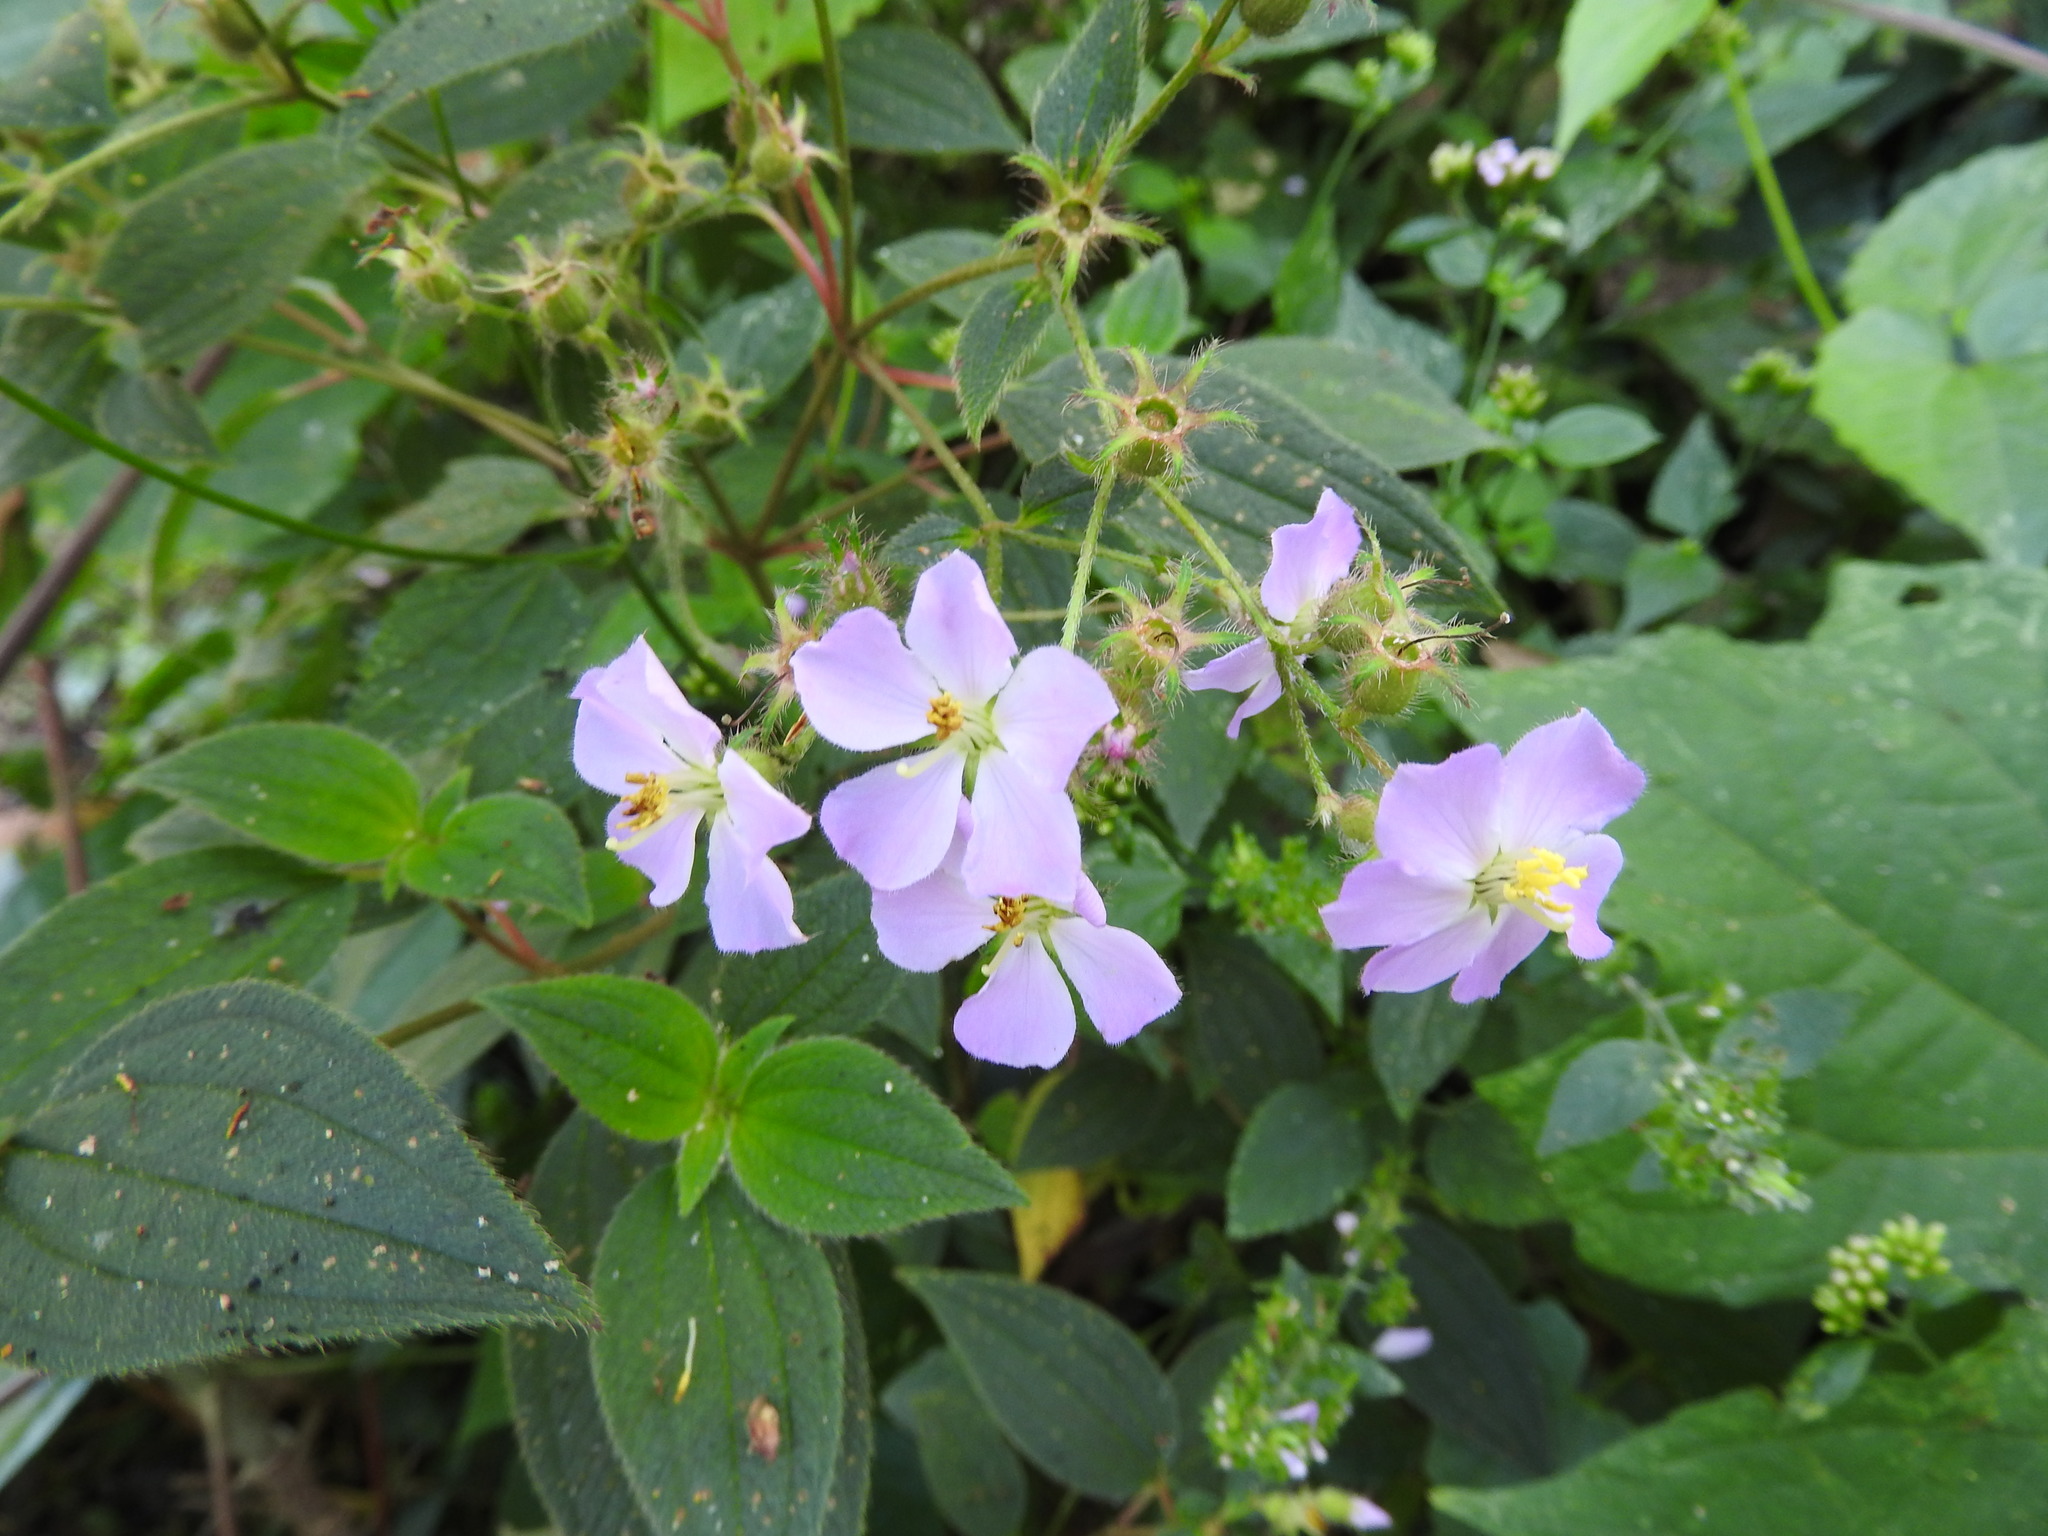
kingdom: Plantae
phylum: Tracheophyta
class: Magnoliopsida
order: Myrtales
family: Melastomataceae
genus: Chaetogastra
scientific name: Chaetogastra naudiniana
